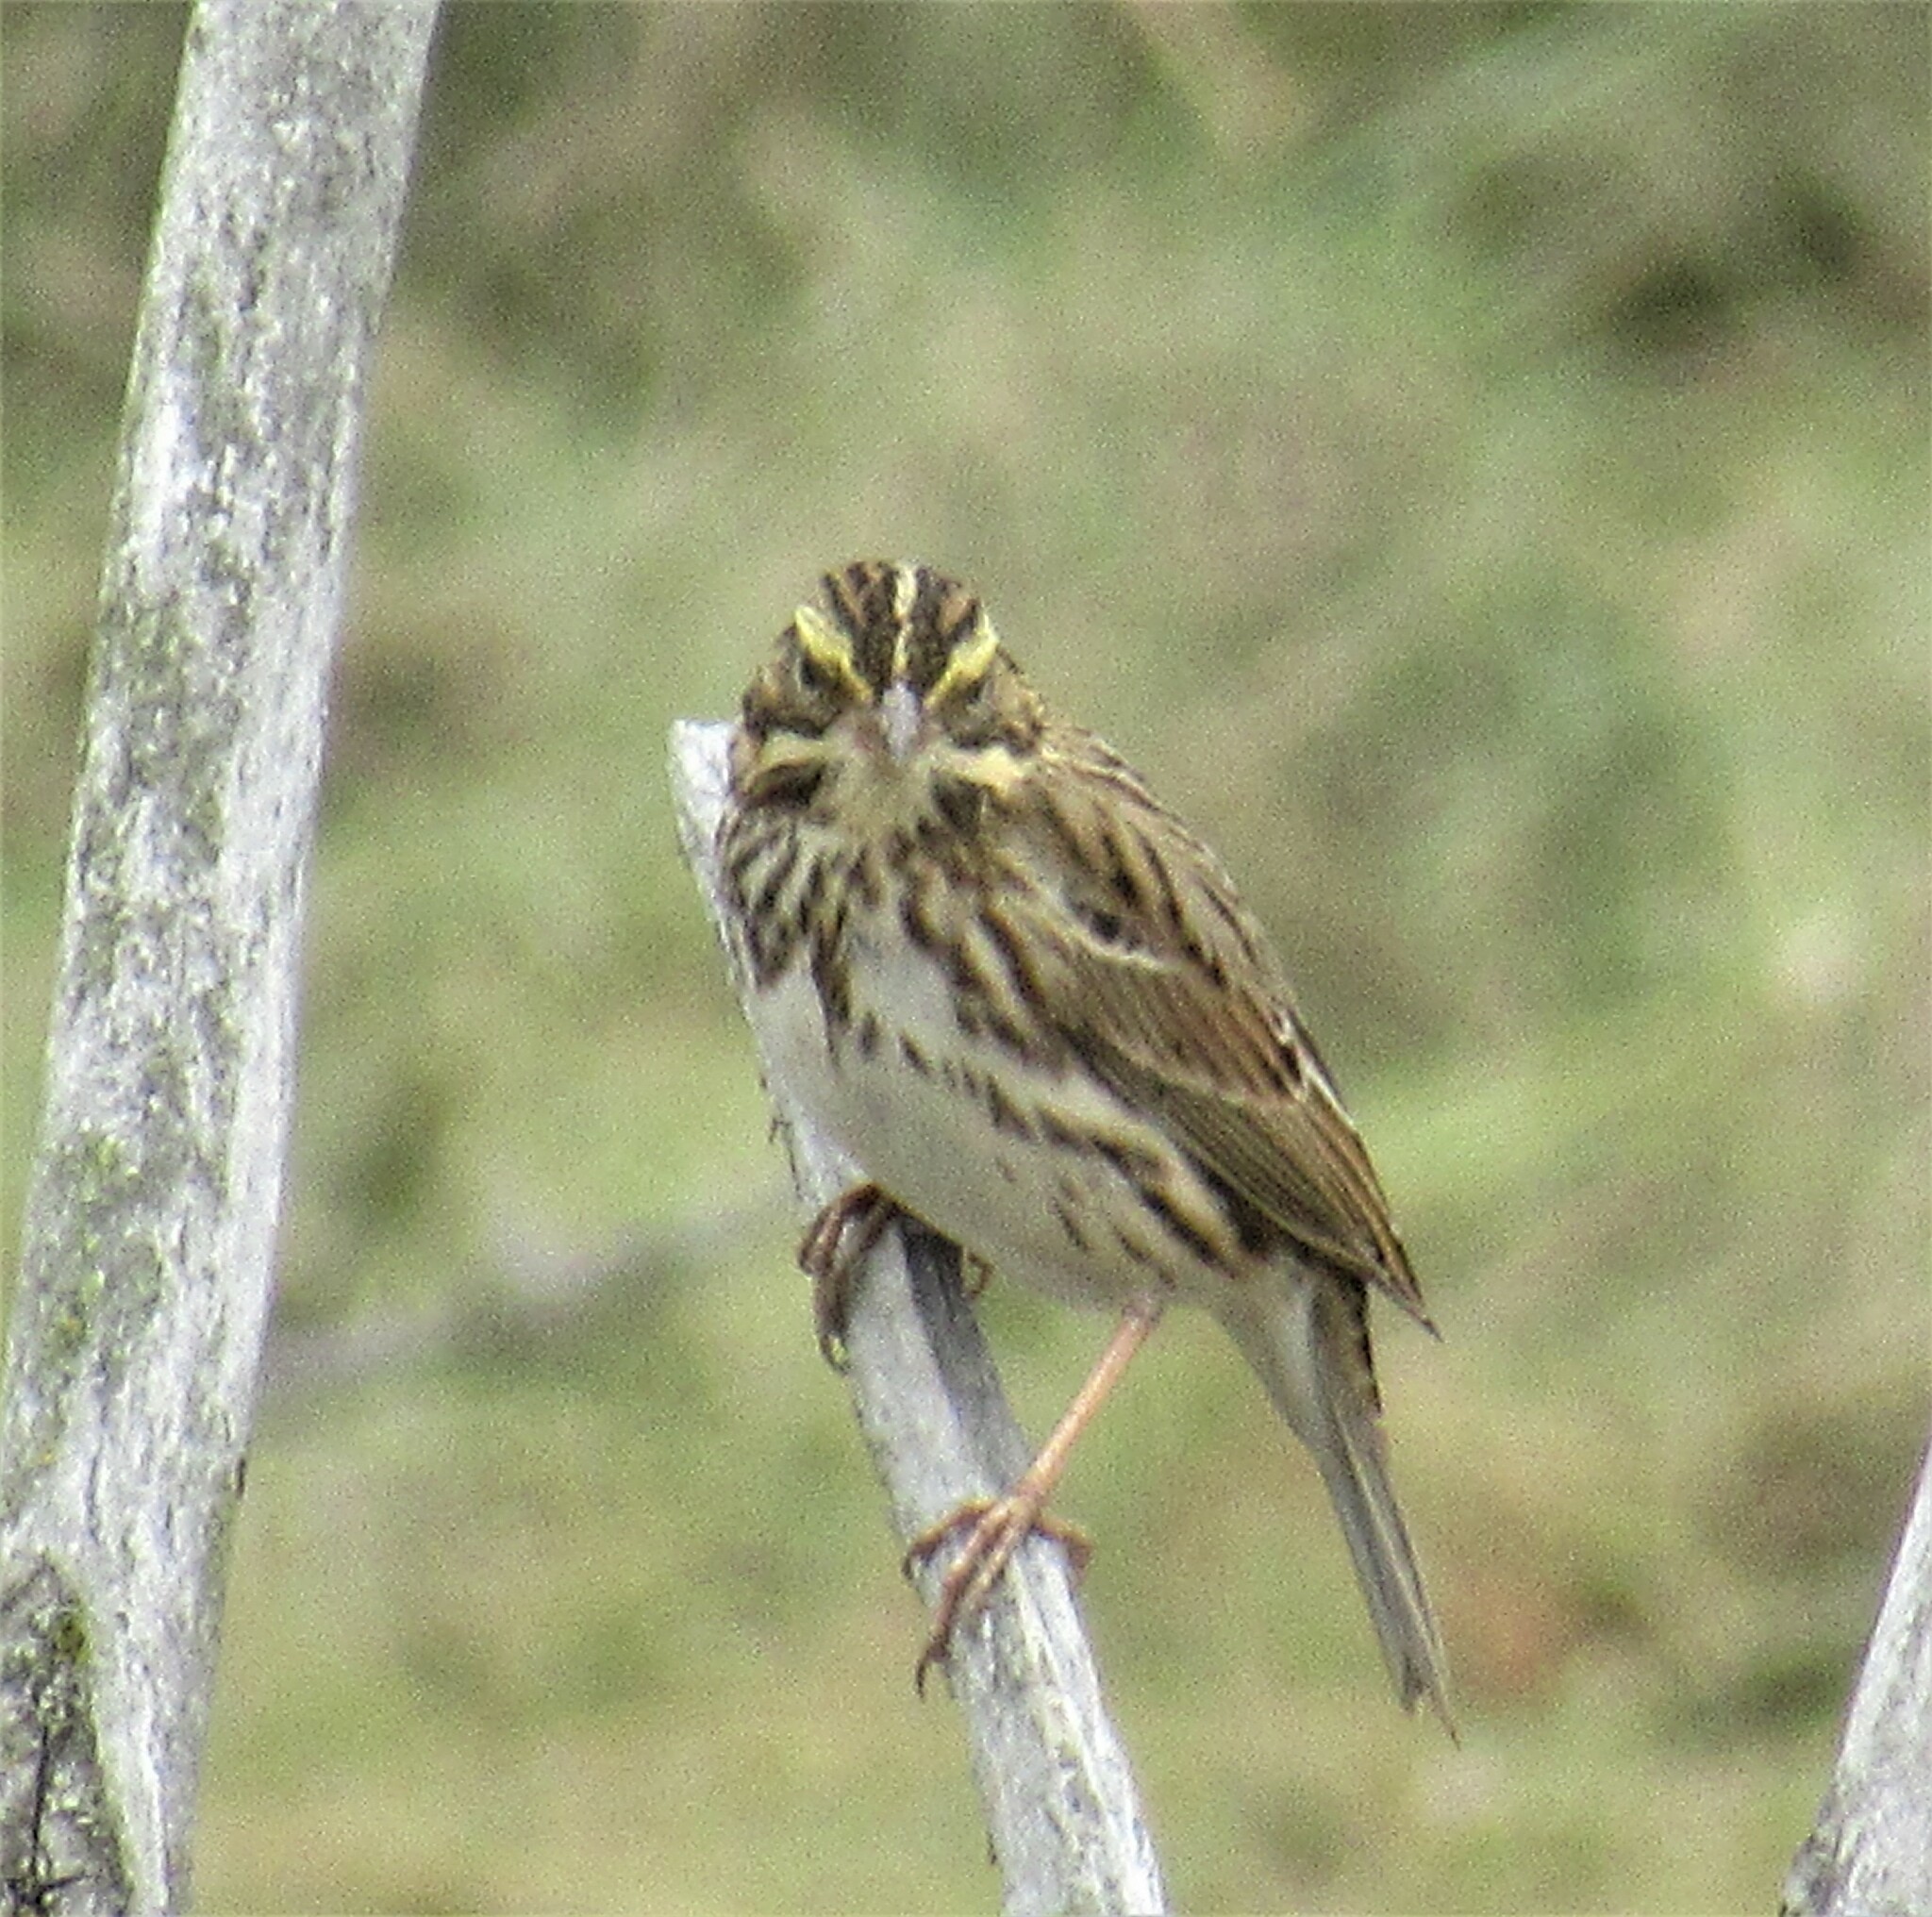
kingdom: Animalia
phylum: Chordata
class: Aves
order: Passeriformes
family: Passerellidae
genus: Passerculus
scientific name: Passerculus sandwichensis
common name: Savannah sparrow
